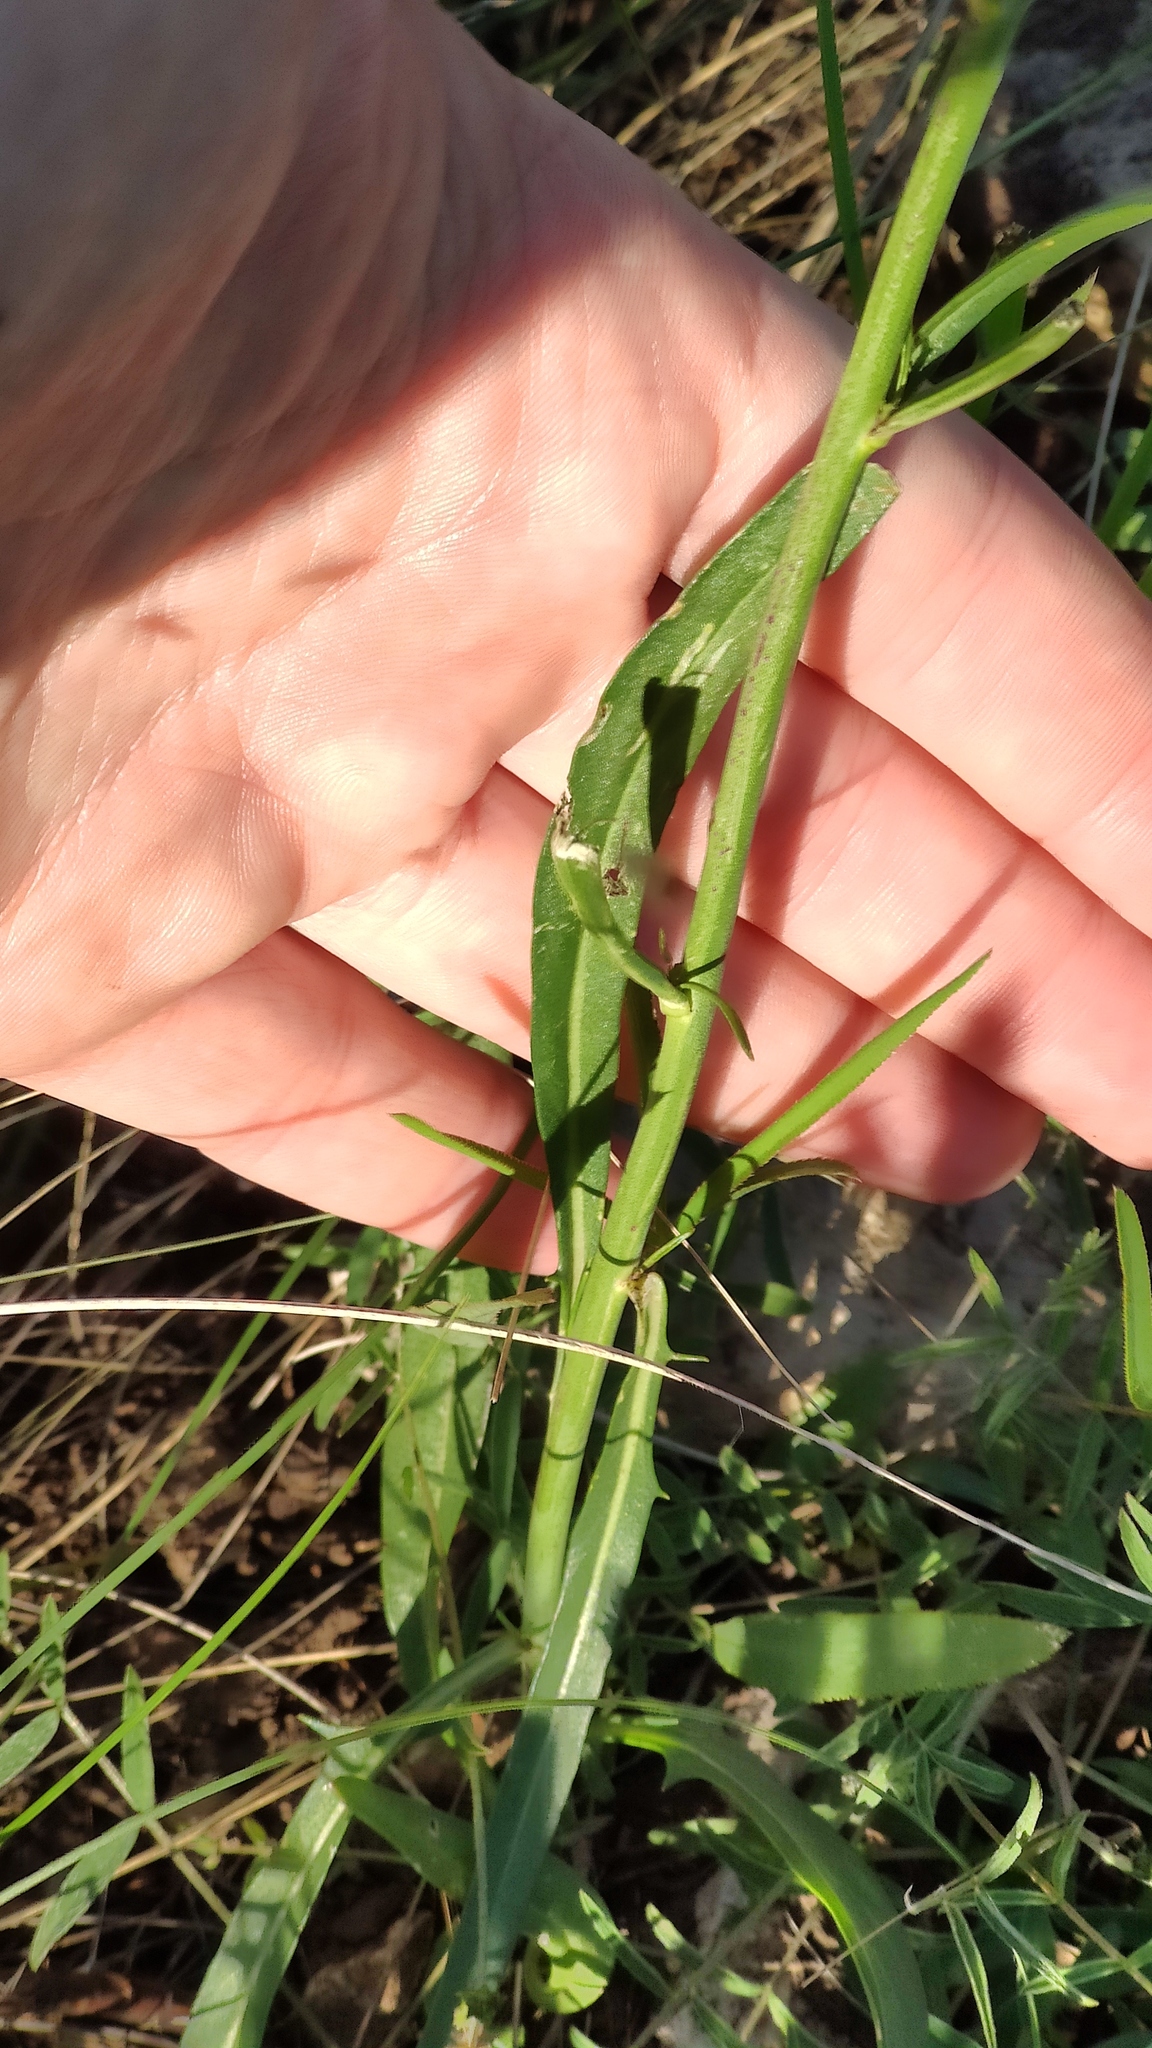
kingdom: Plantae
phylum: Tracheophyta
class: Magnoliopsida
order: Brassicales
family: Brassicaceae
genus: Sisymbrium
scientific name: Sisymbrium polymorphum
